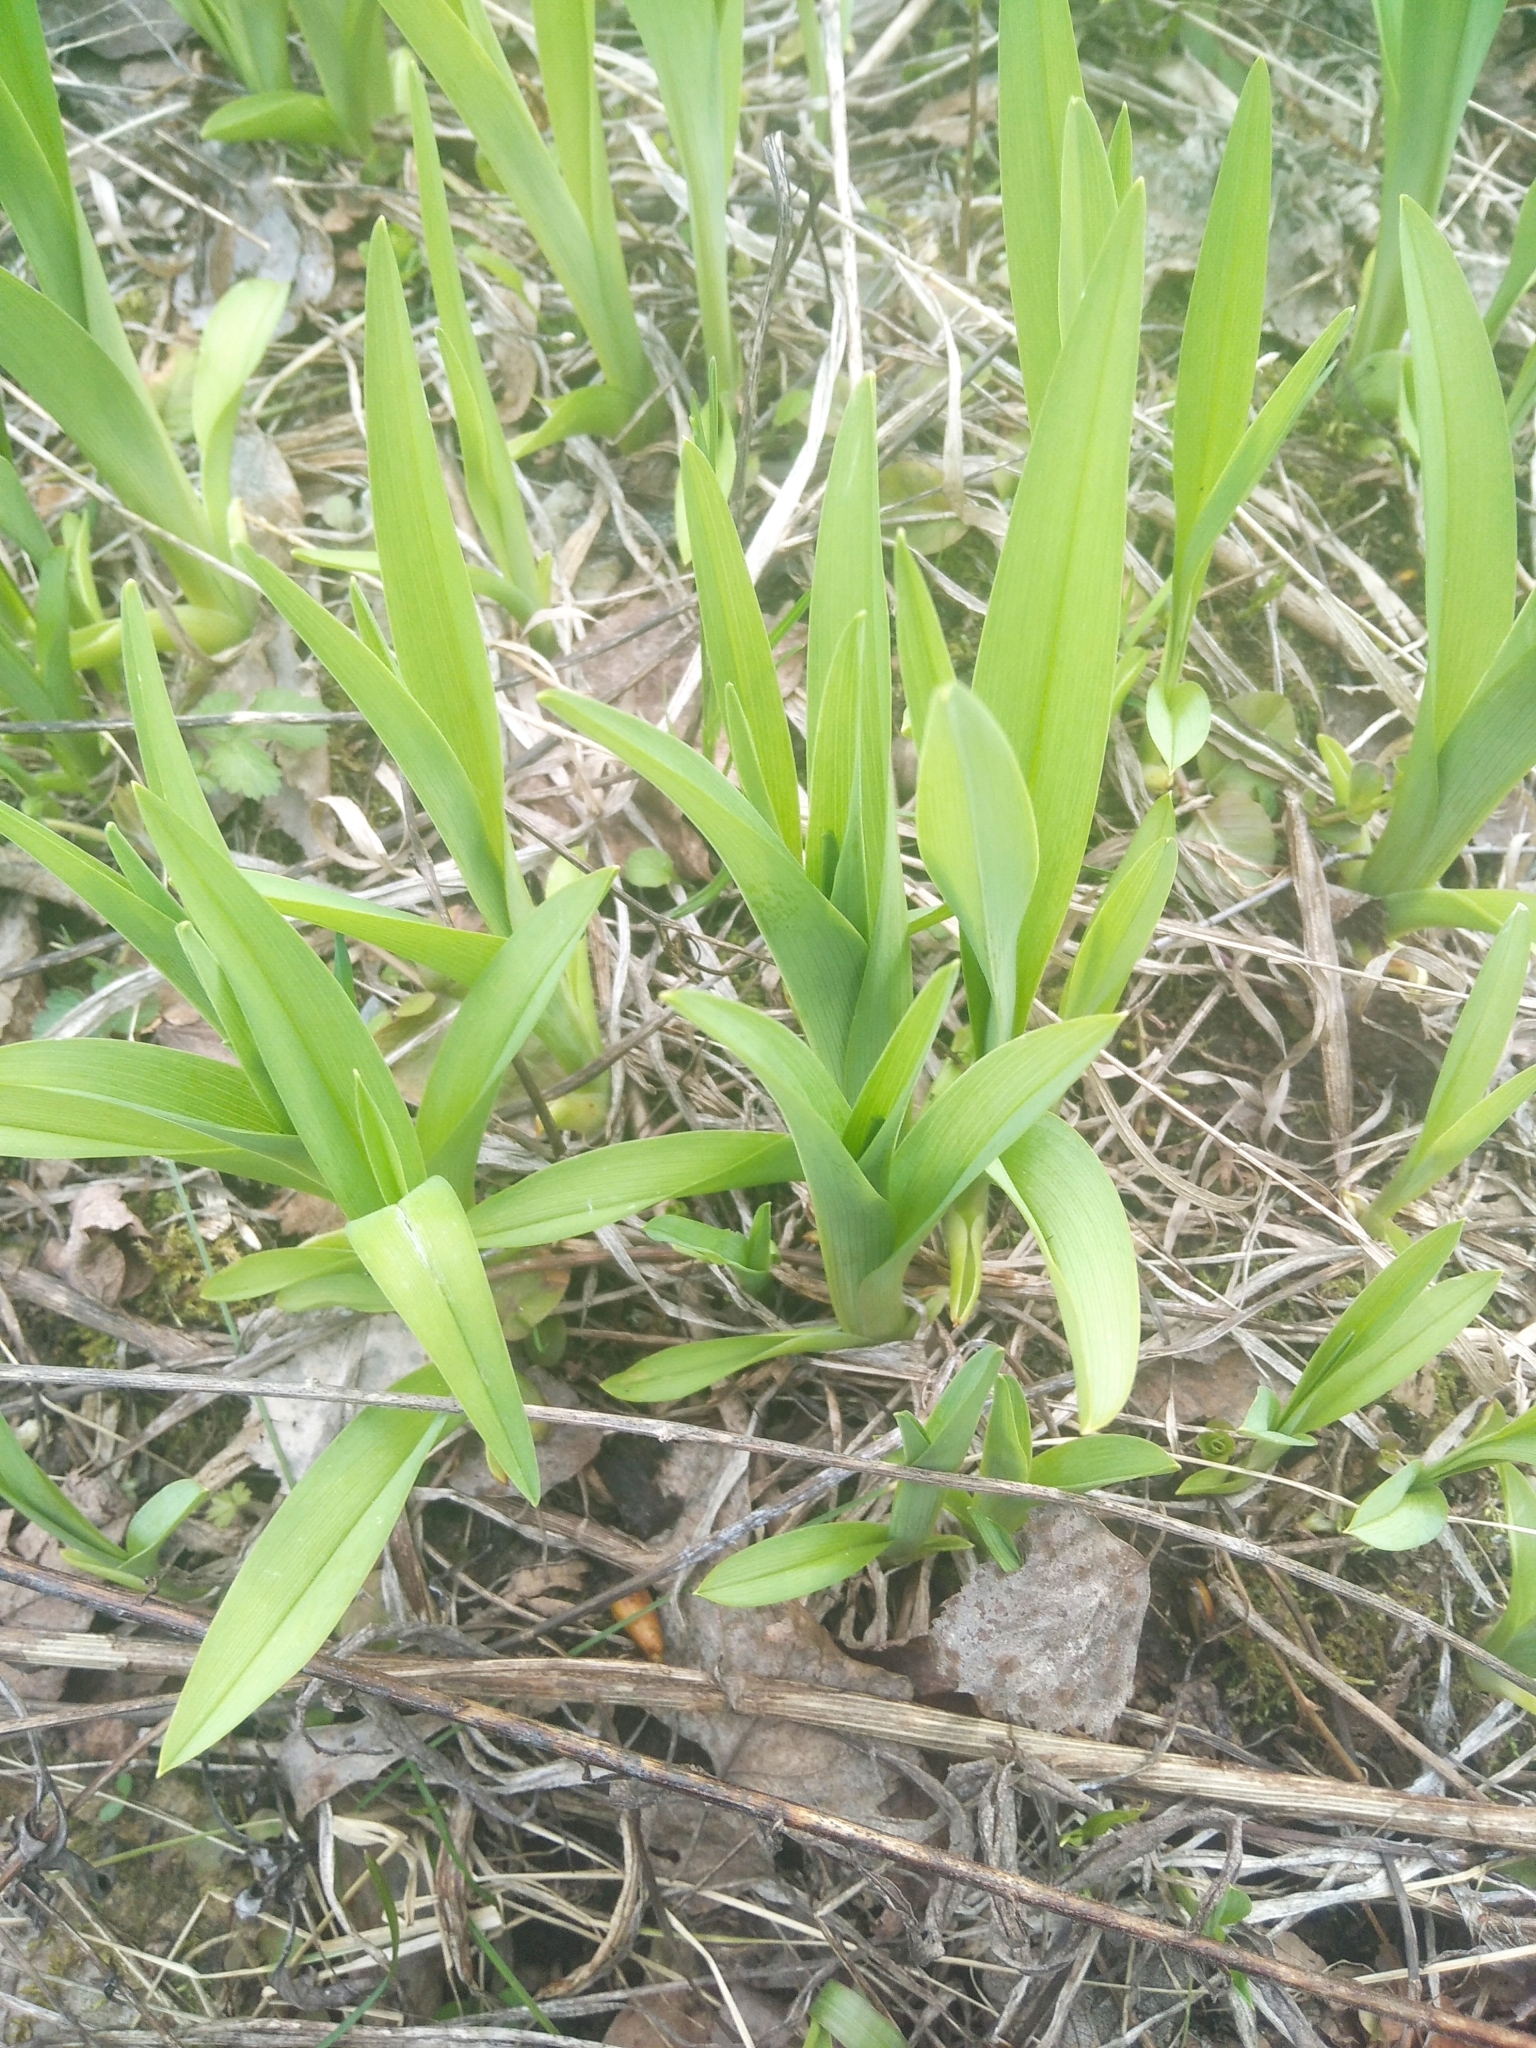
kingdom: Plantae
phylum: Tracheophyta
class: Liliopsida
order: Asparagales
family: Asphodelaceae
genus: Hemerocallis
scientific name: Hemerocallis fulva
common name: Orange day-lily
